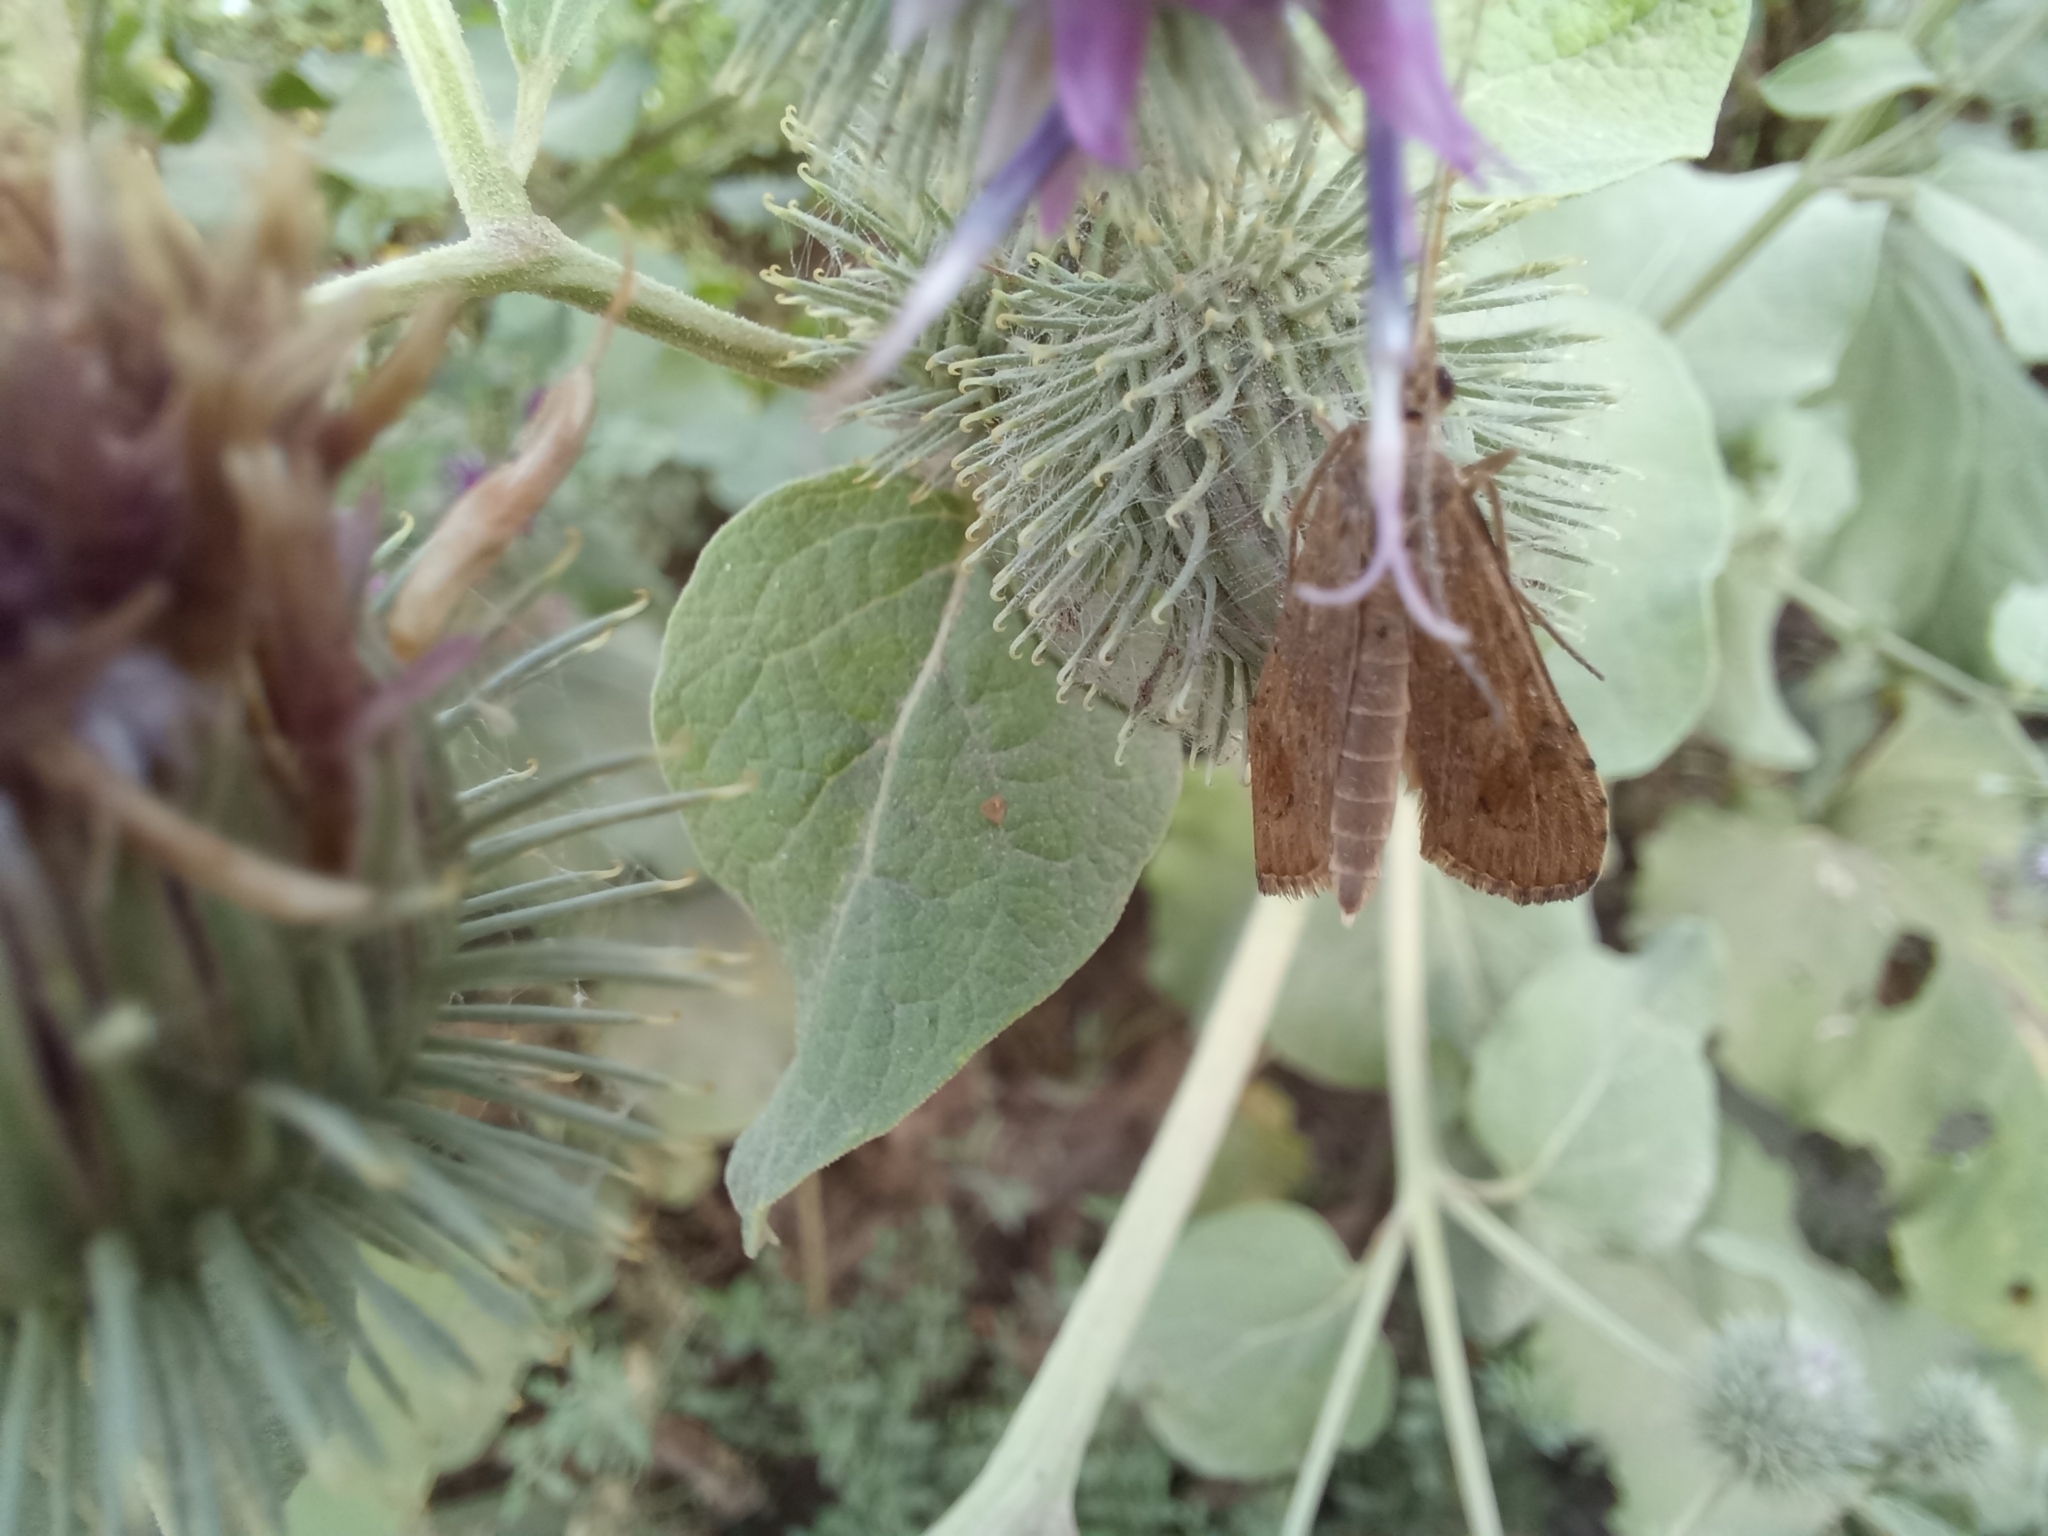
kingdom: Animalia
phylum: Arthropoda
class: Insecta
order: Lepidoptera
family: Crambidae
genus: Nomophila
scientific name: Nomophila noctuella
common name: Rush veneer
